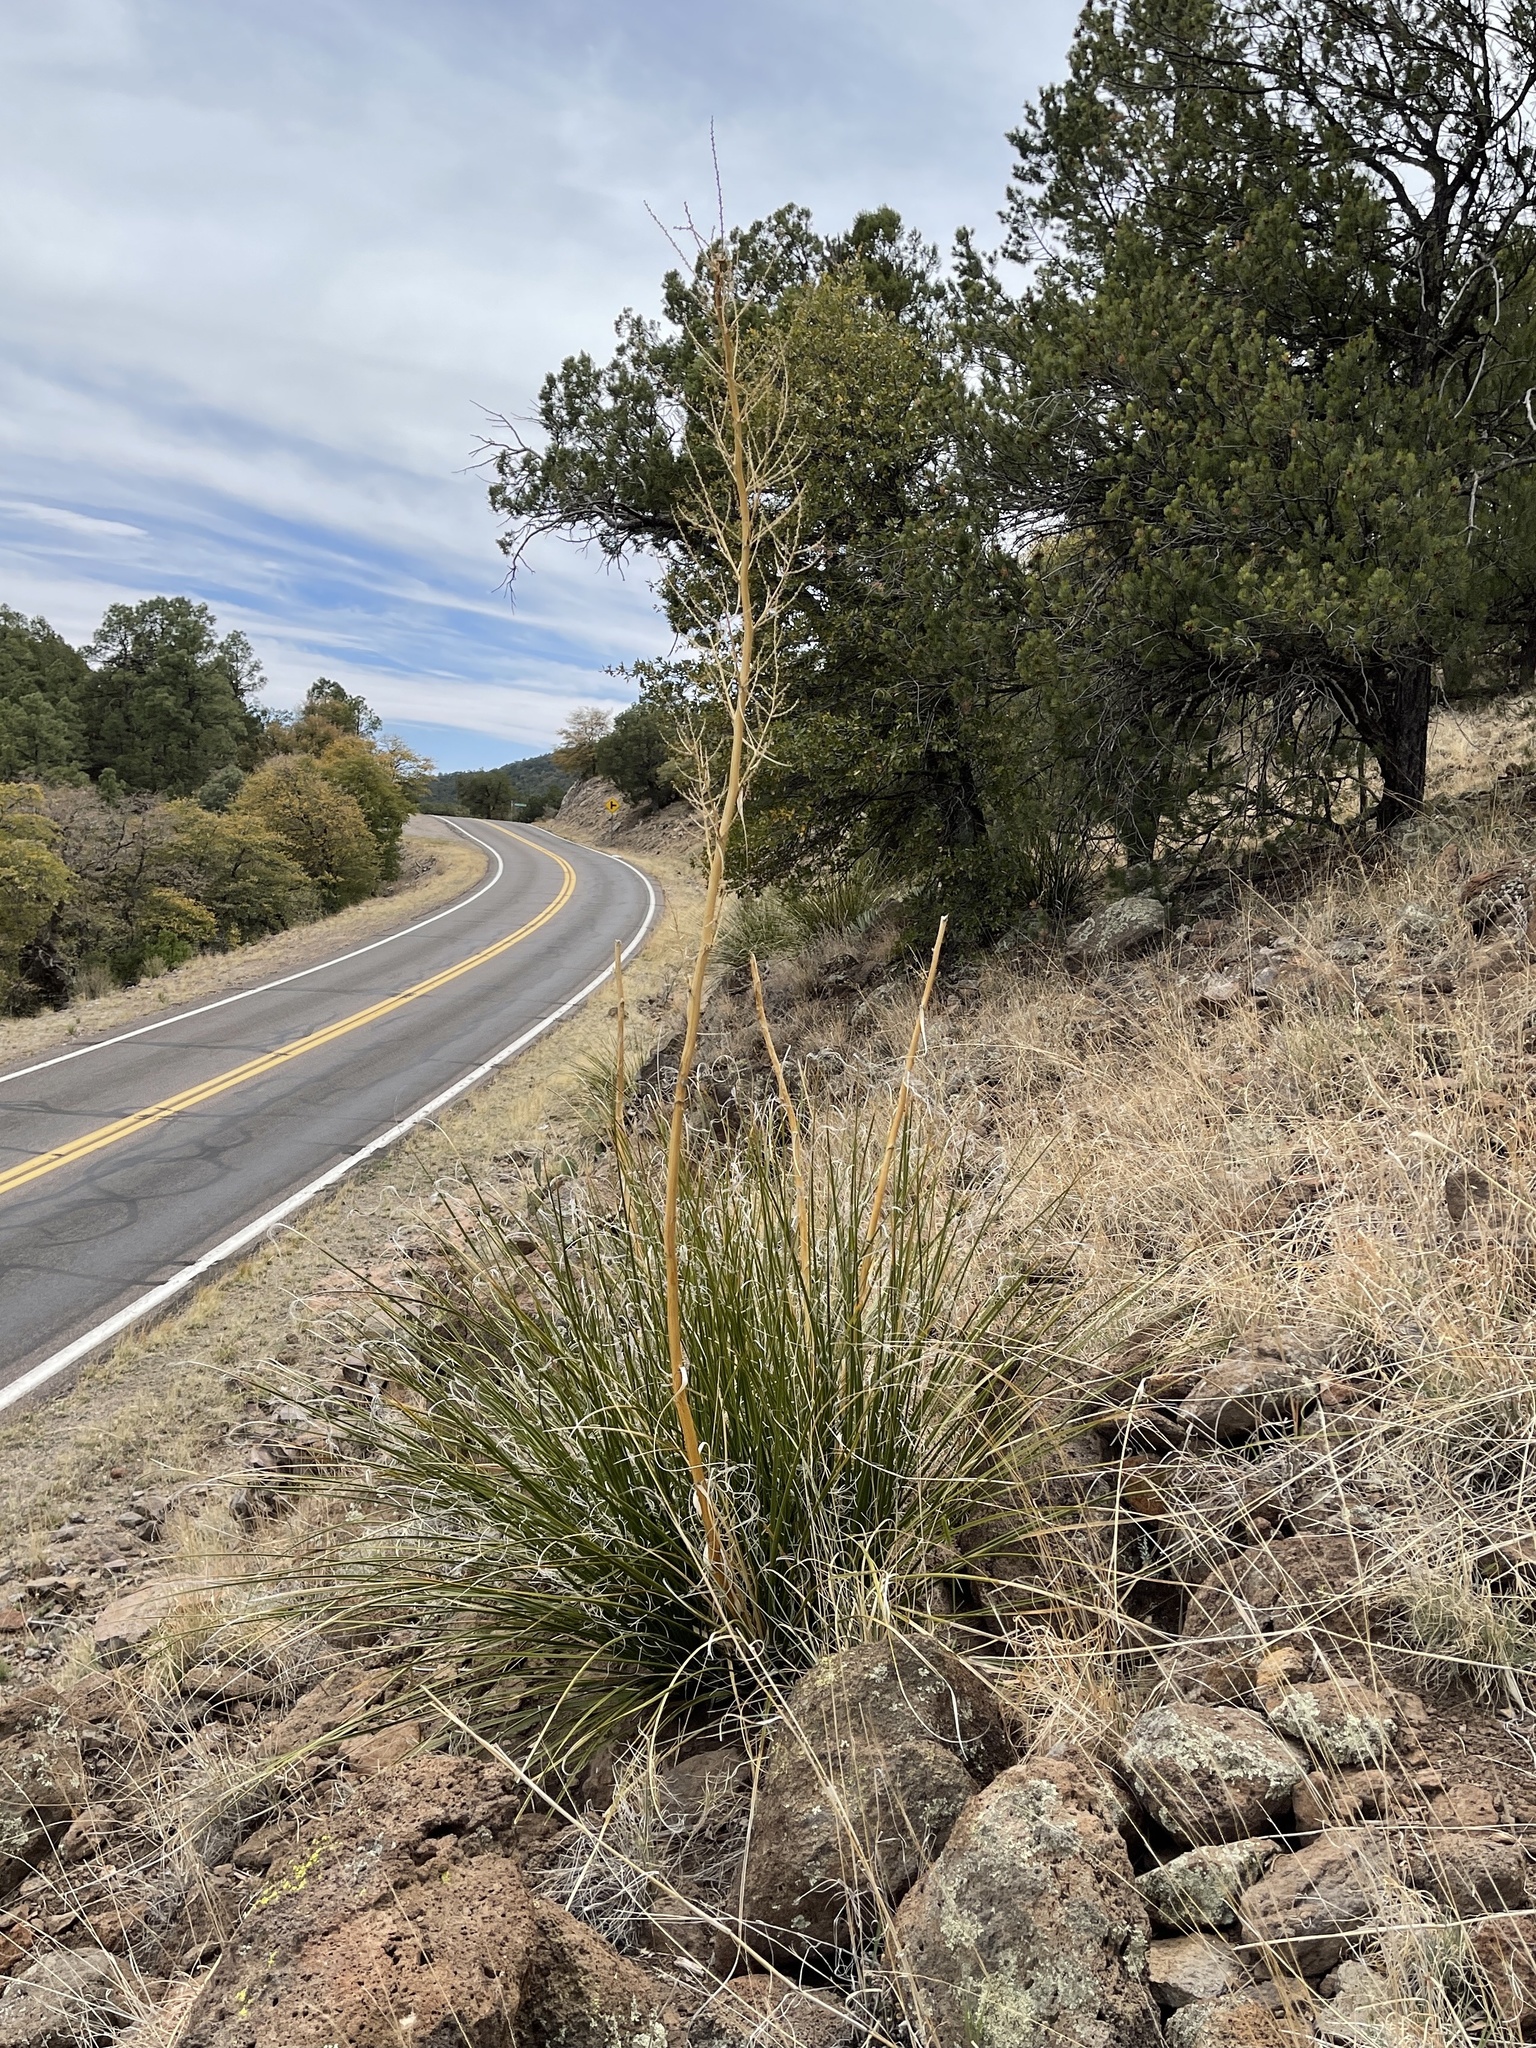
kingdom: Plantae
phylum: Tracheophyta
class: Liliopsida
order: Asparagales
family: Asparagaceae
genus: Nolina
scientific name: Nolina microcarpa
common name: Bear-grass
